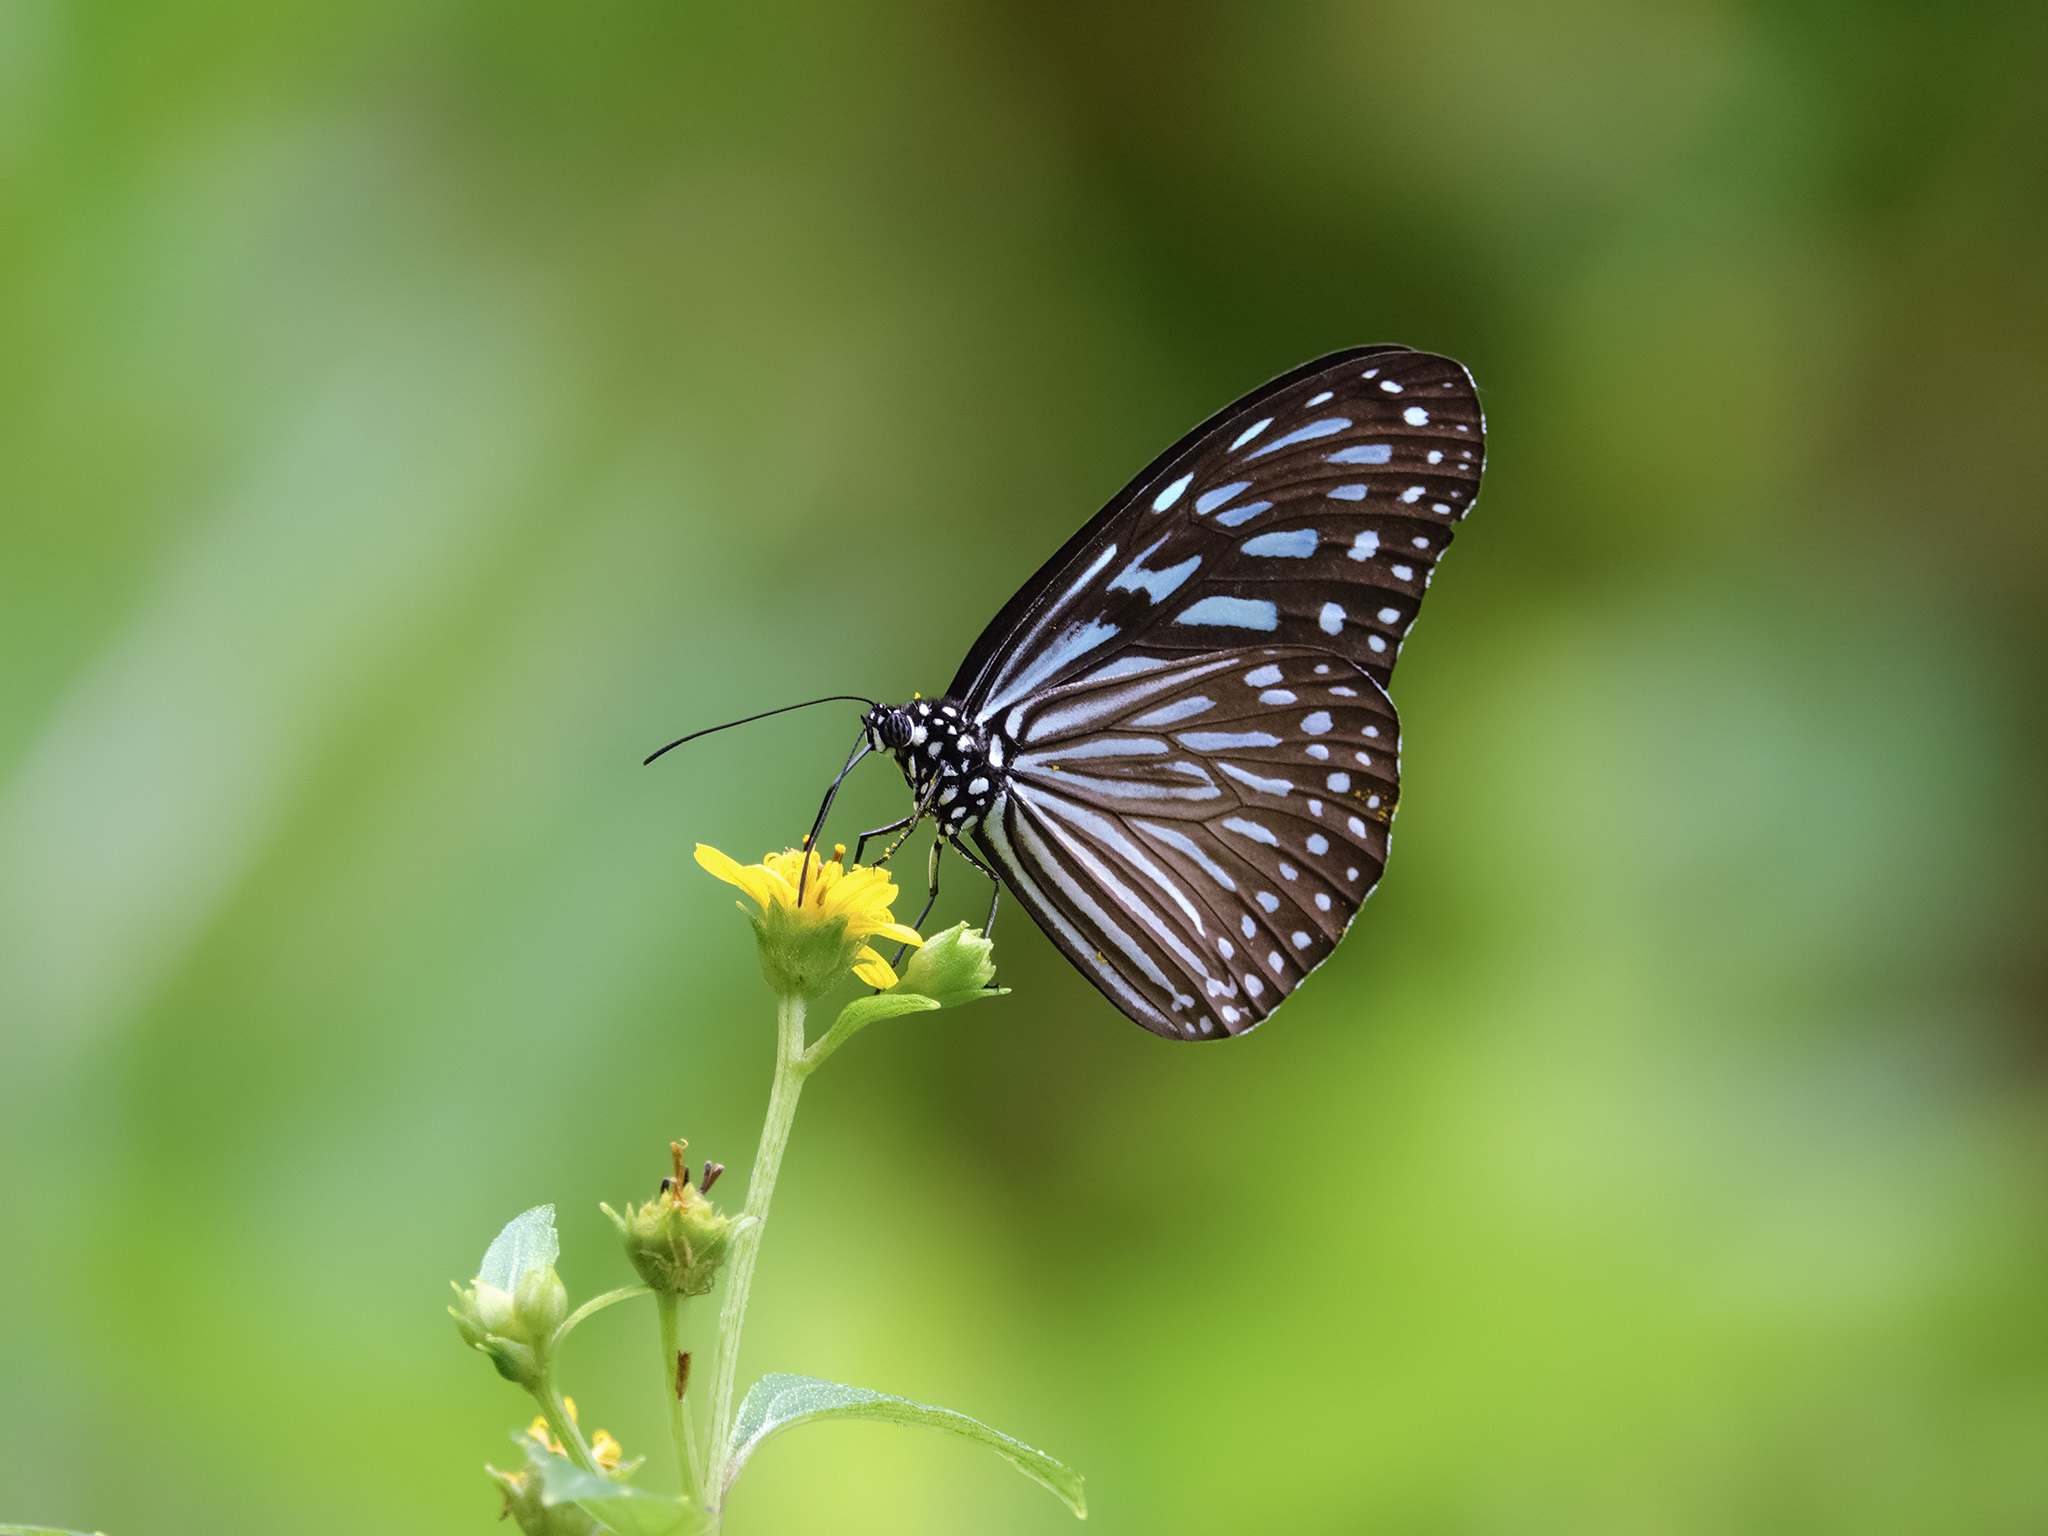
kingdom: Animalia
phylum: Arthropoda
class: Insecta
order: Lepidoptera
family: Nymphalidae
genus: Ideopsis
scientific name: Ideopsis vulgaris
